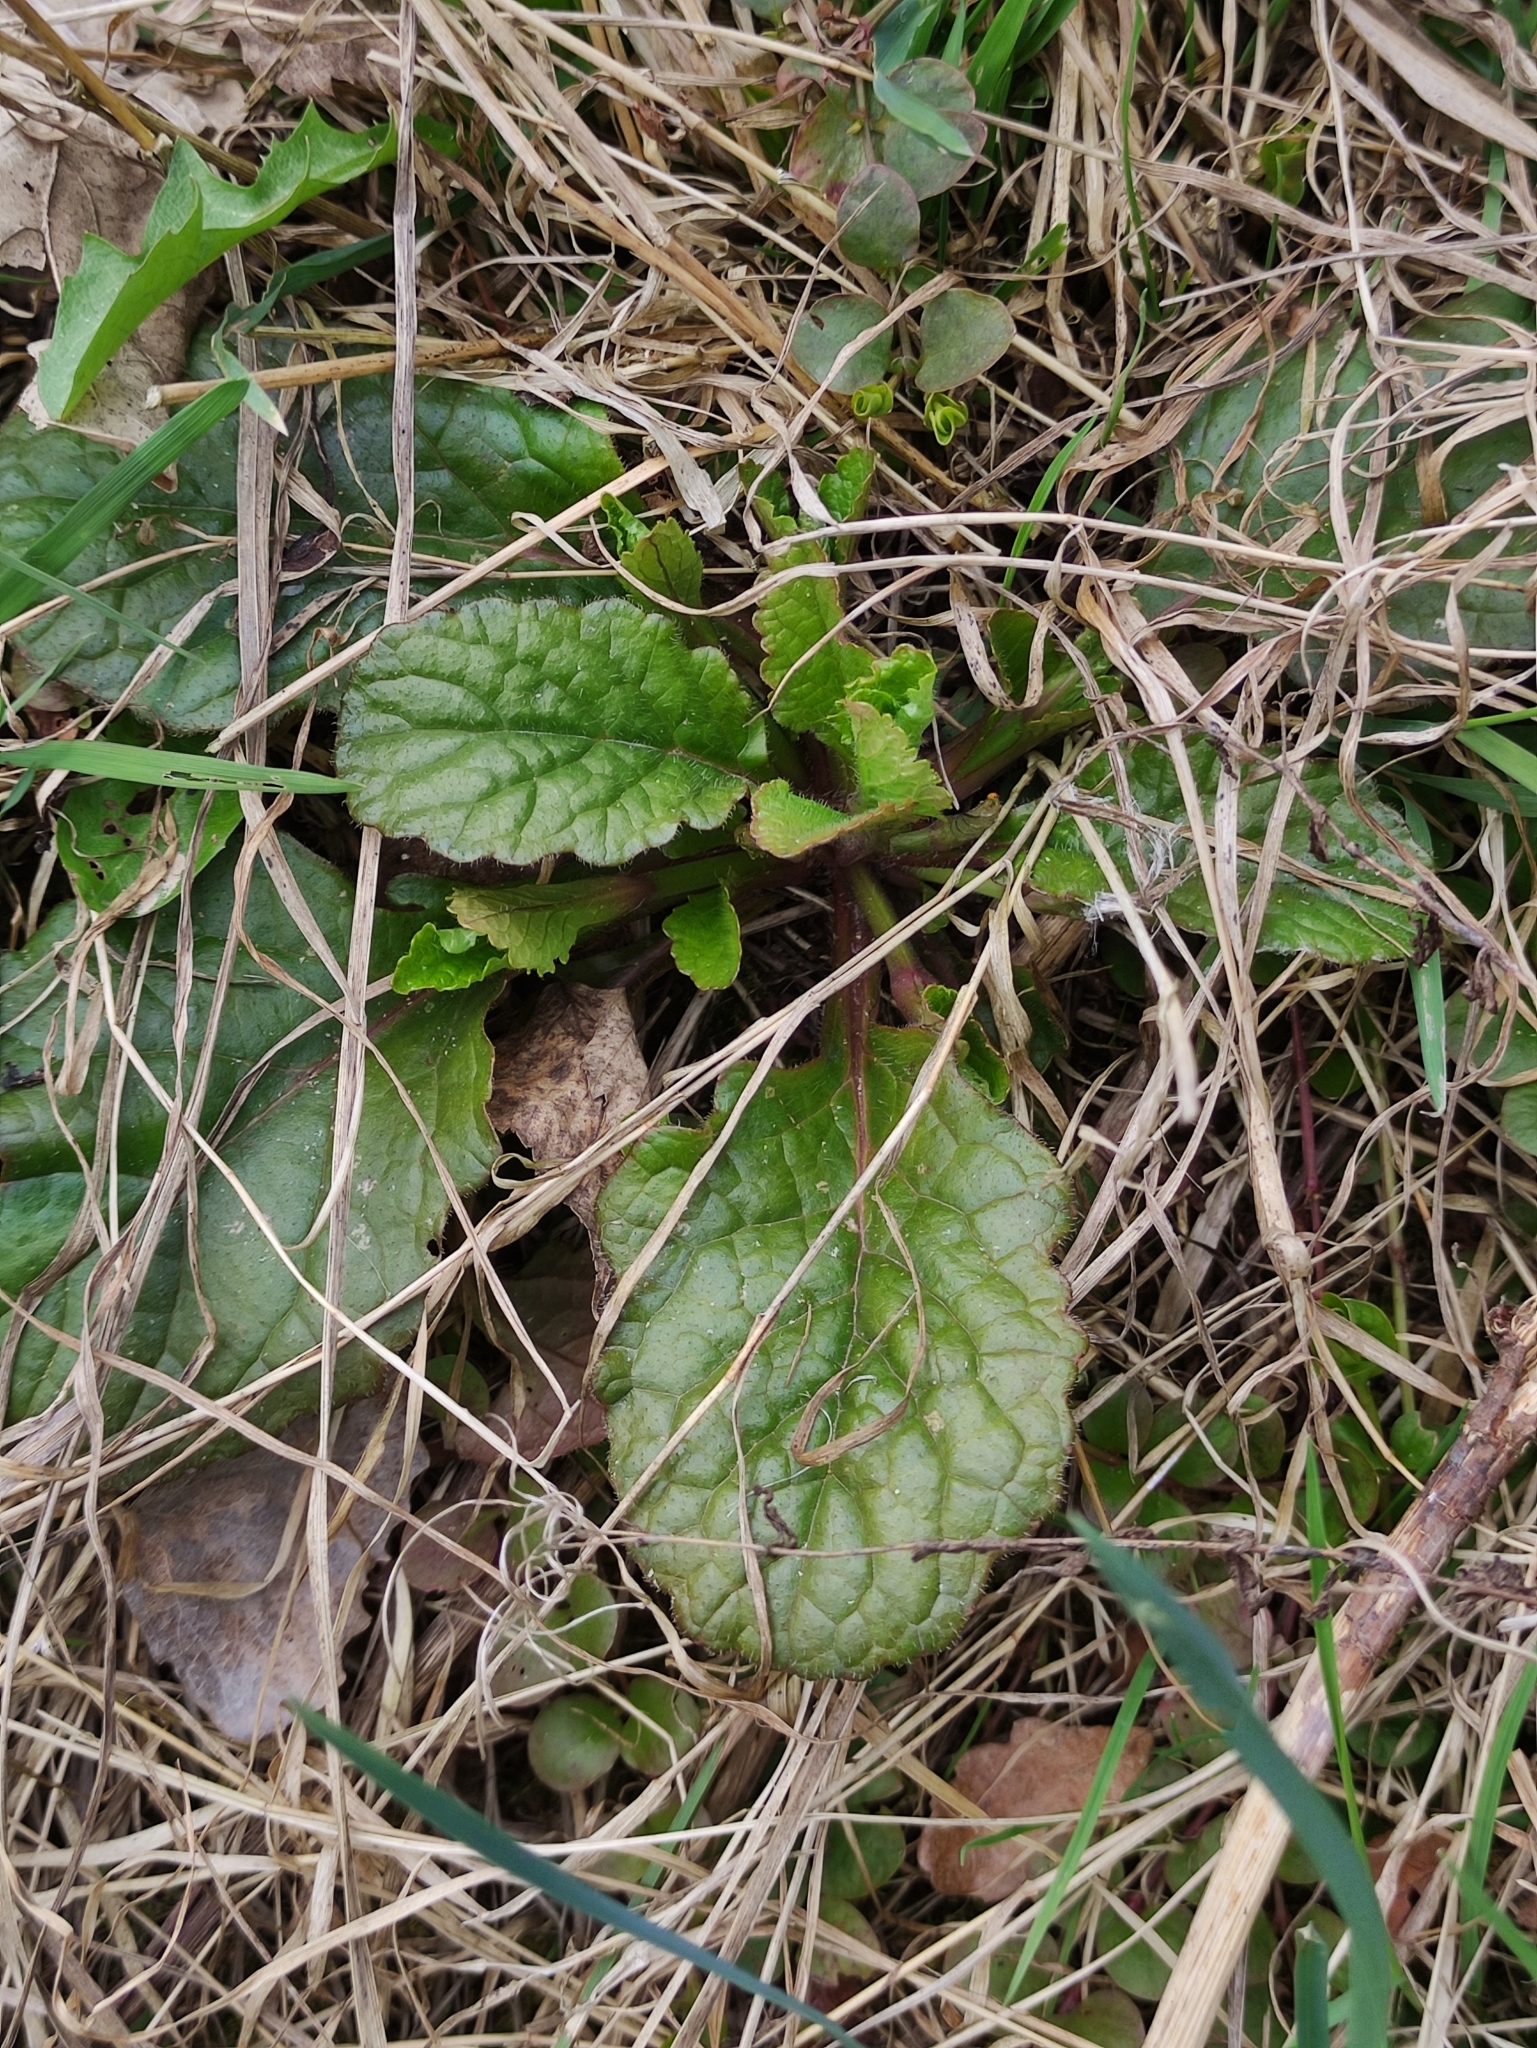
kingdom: Plantae
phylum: Tracheophyta
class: Magnoliopsida
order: Lamiales
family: Lamiaceae
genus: Ajuga
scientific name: Ajuga reptans
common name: Bugle
